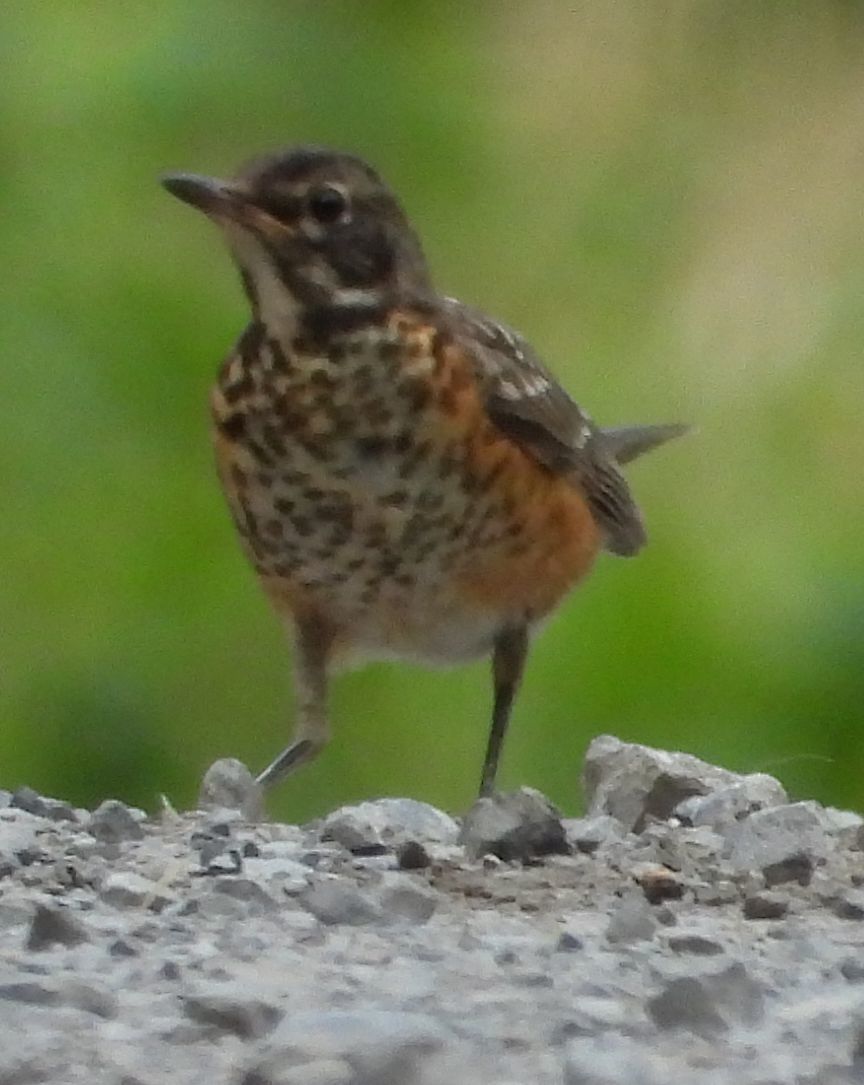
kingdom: Animalia
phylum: Chordata
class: Aves
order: Passeriformes
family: Turdidae
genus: Turdus
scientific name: Turdus migratorius
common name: American robin
